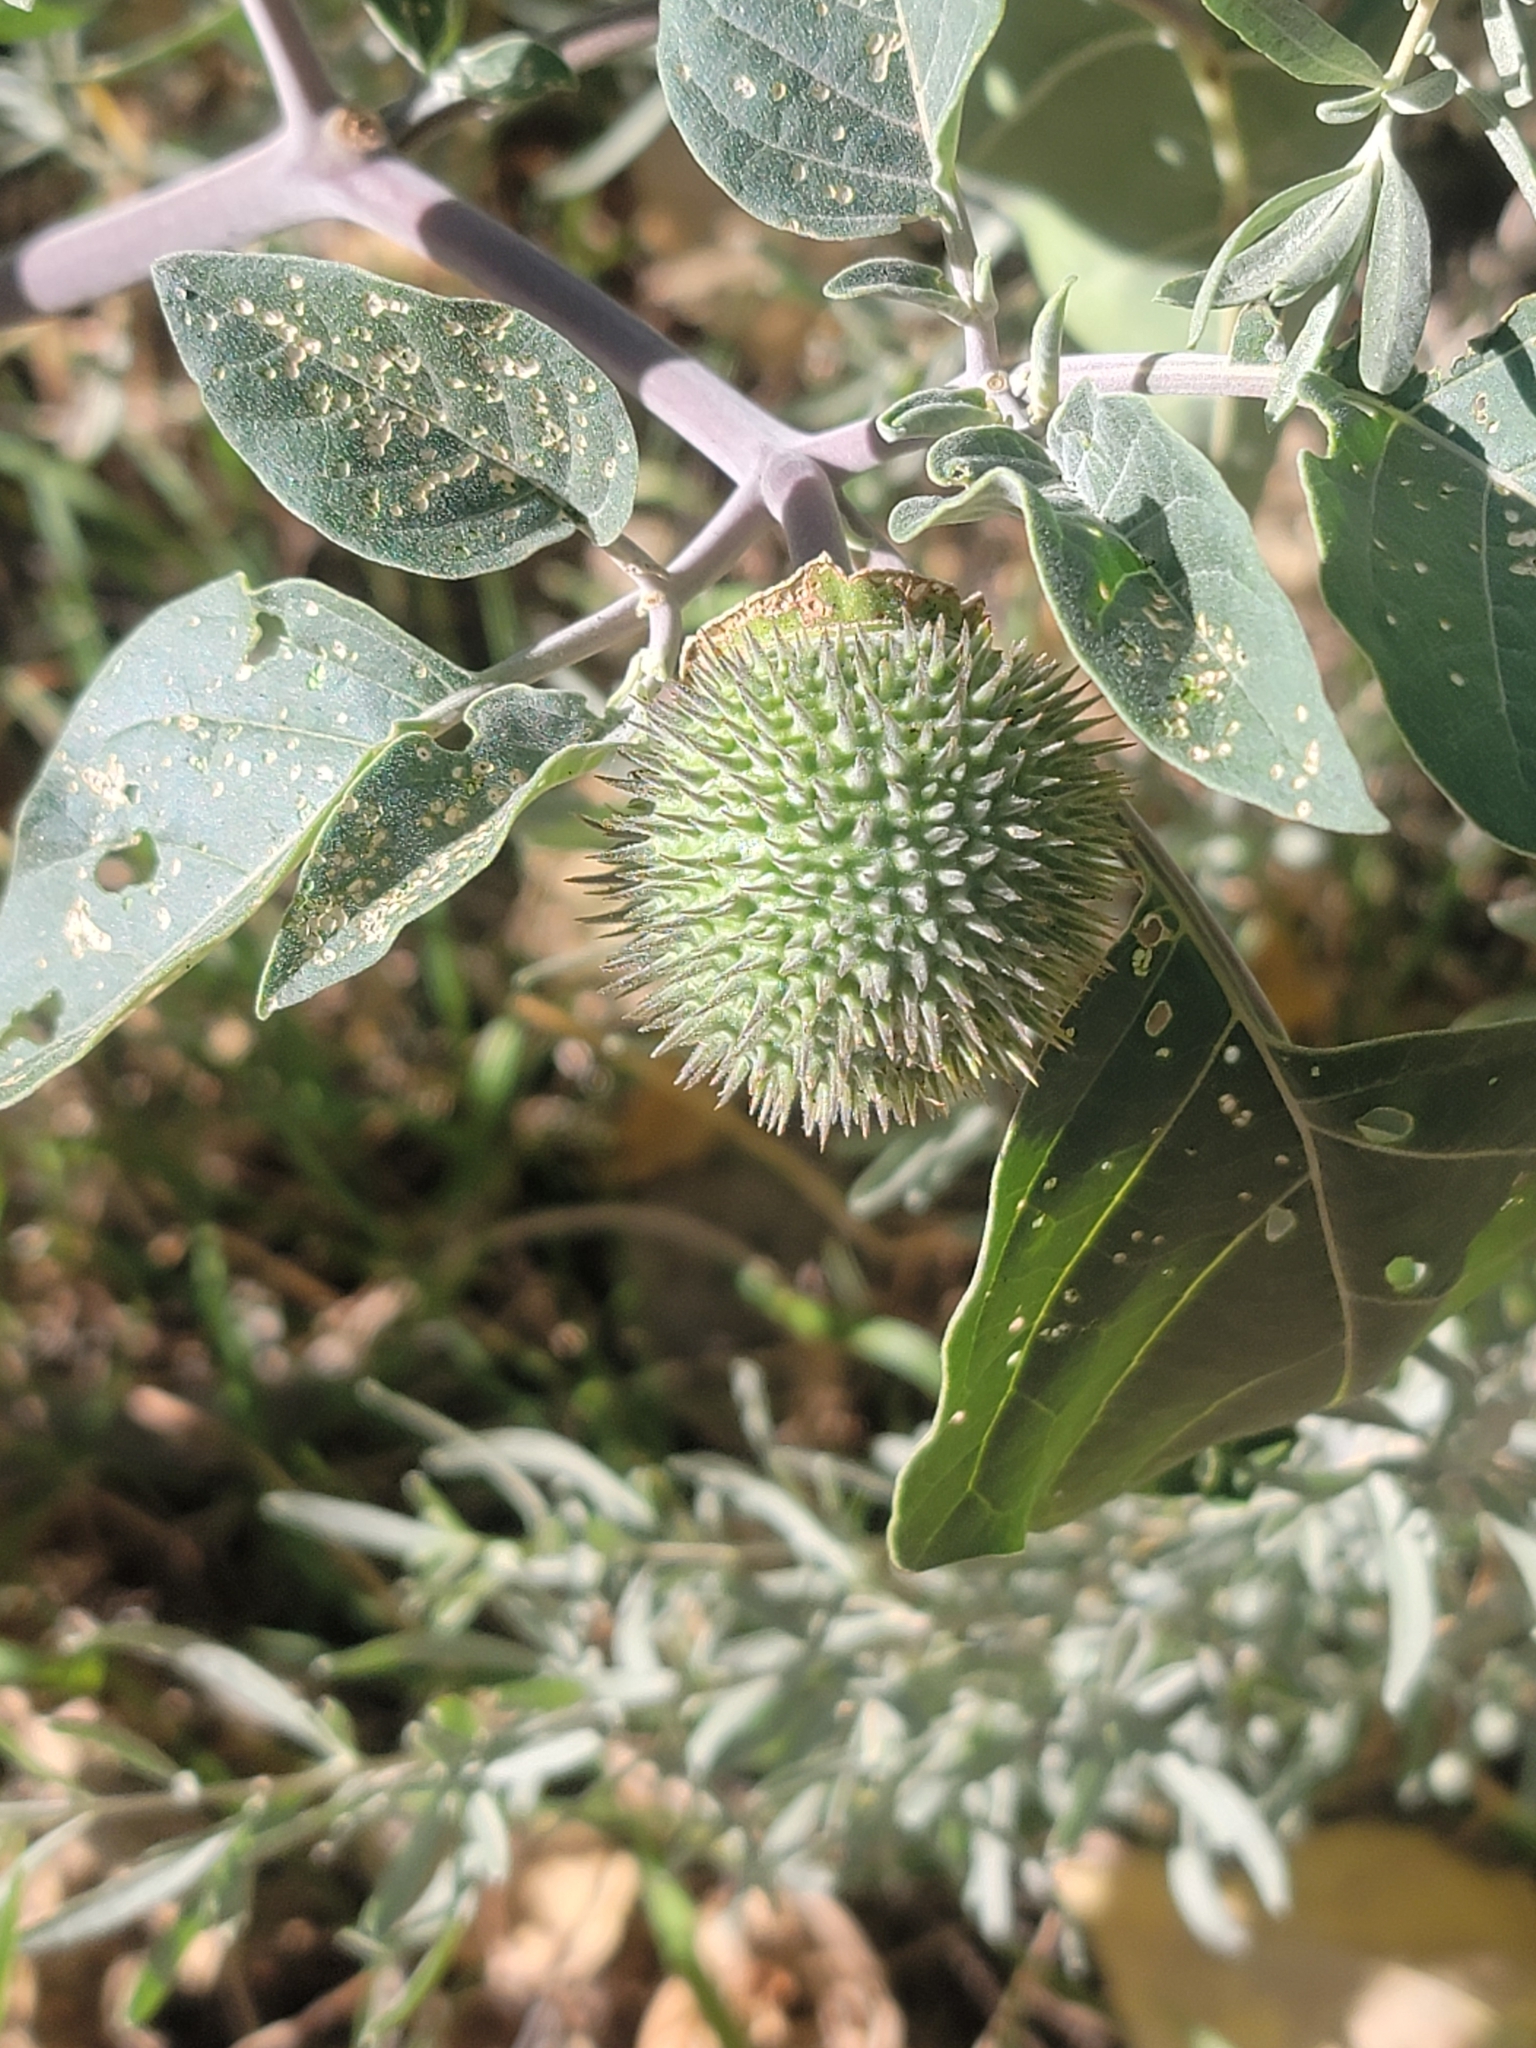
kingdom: Plantae
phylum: Tracheophyta
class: Magnoliopsida
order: Solanales
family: Solanaceae
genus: Datura
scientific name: Datura wrightii
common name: Sacred thorn-apple
